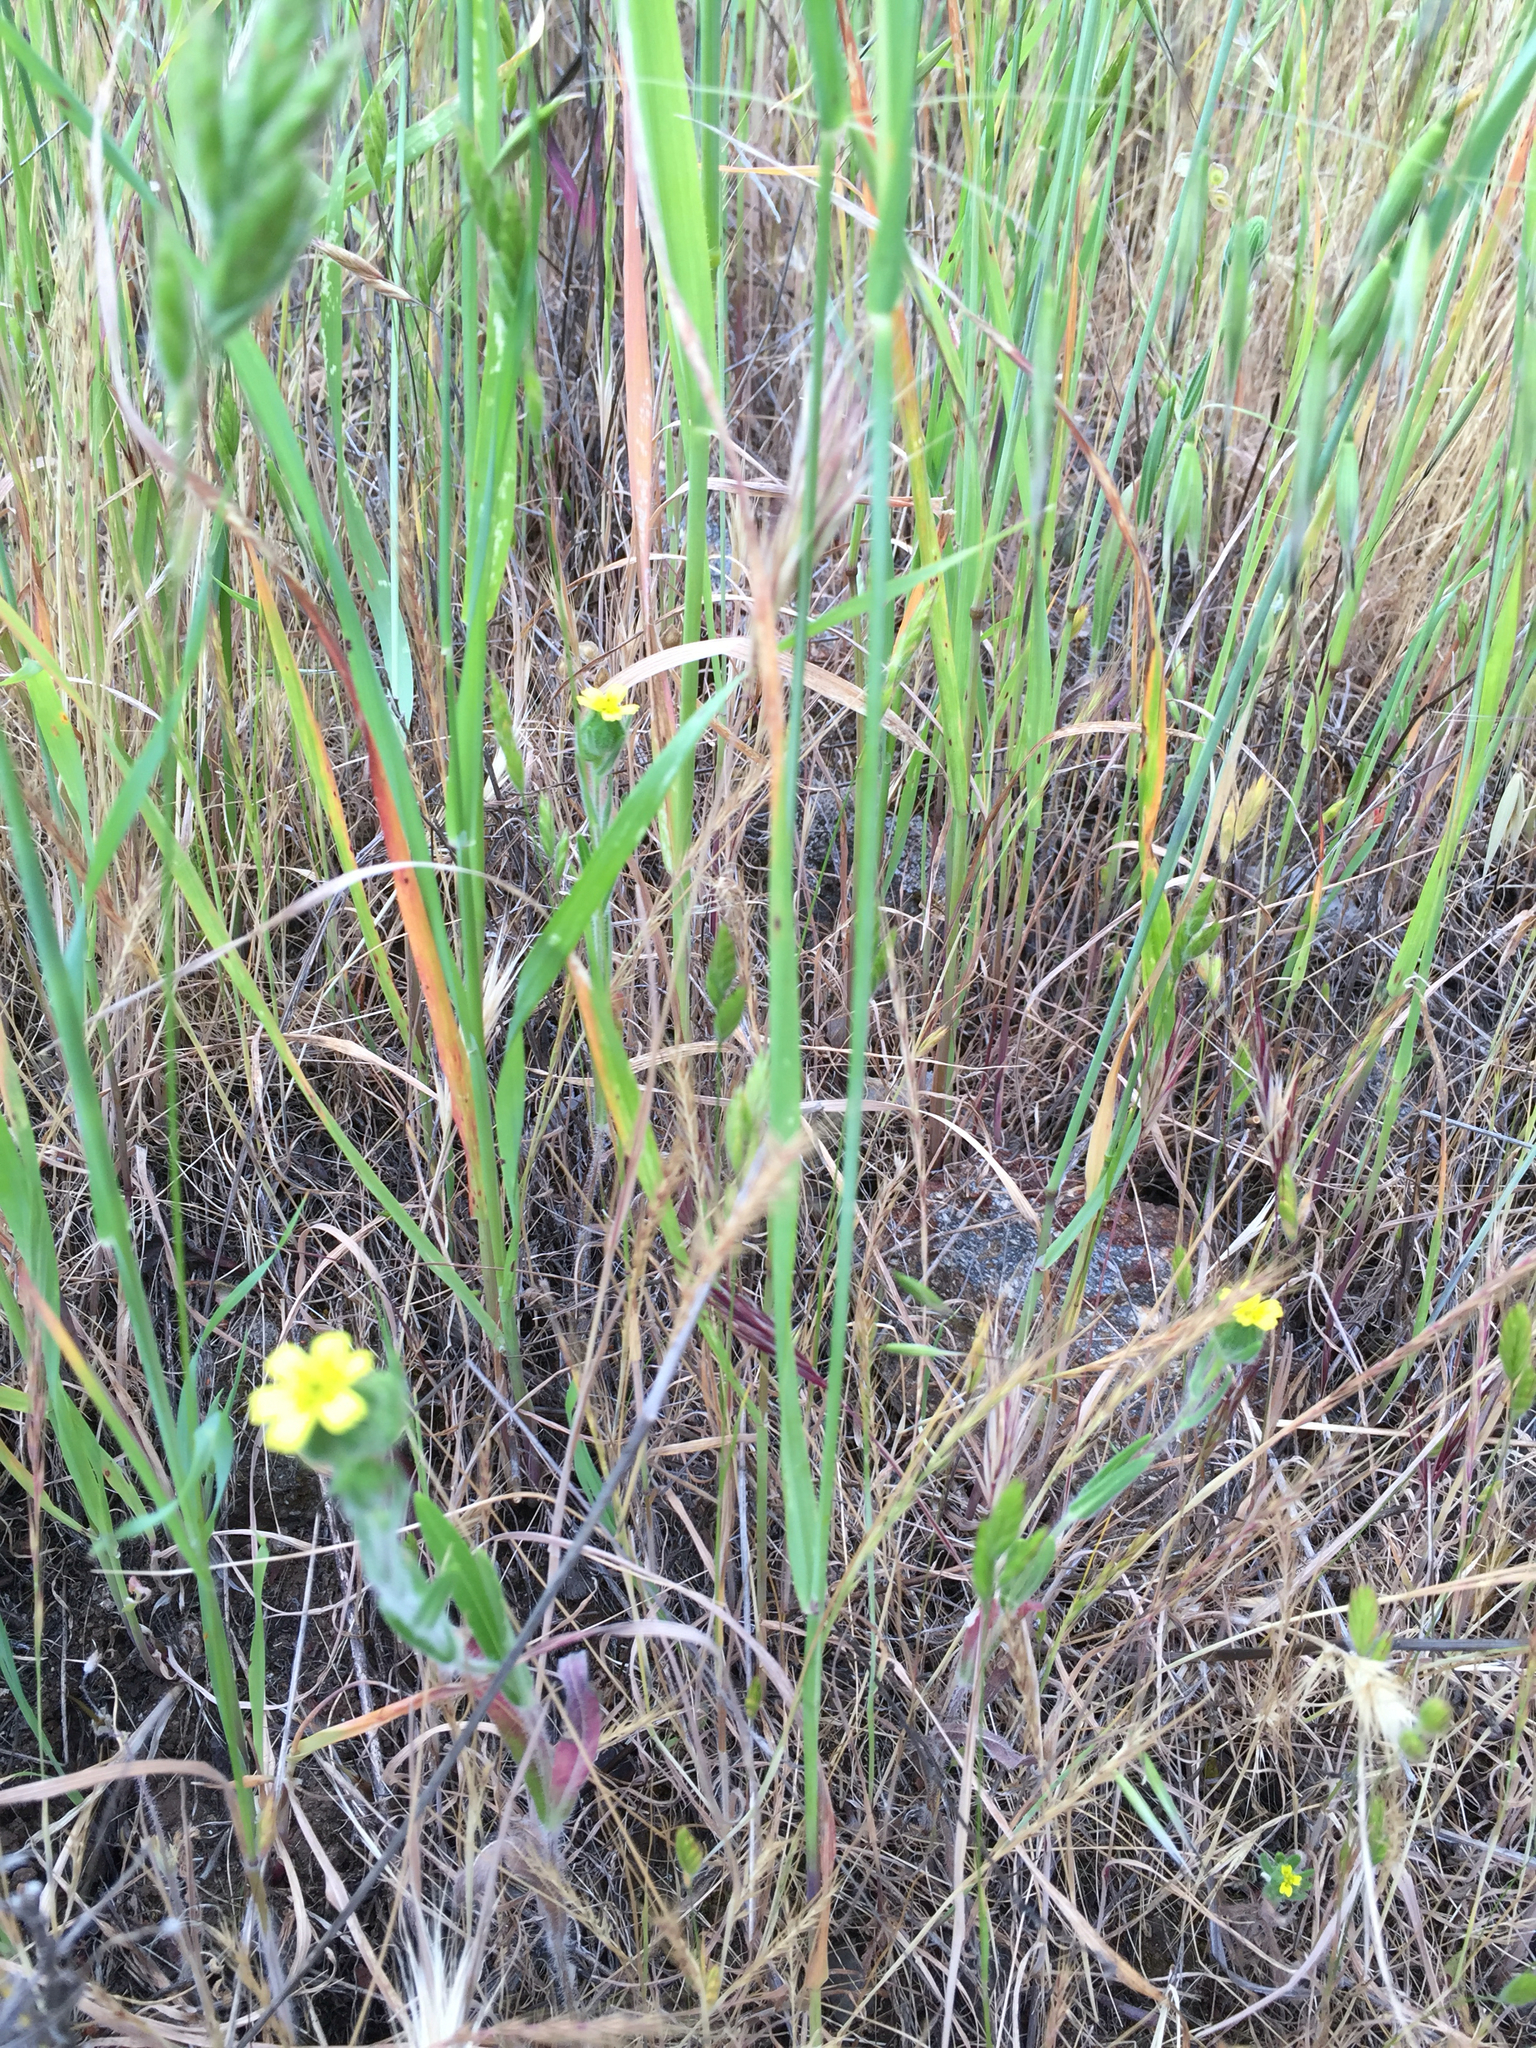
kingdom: Plantae
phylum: Tracheophyta
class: Magnoliopsida
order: Asterales
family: Asteraceae
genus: Madia
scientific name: Madia gracilis
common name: Grassy tarweed
